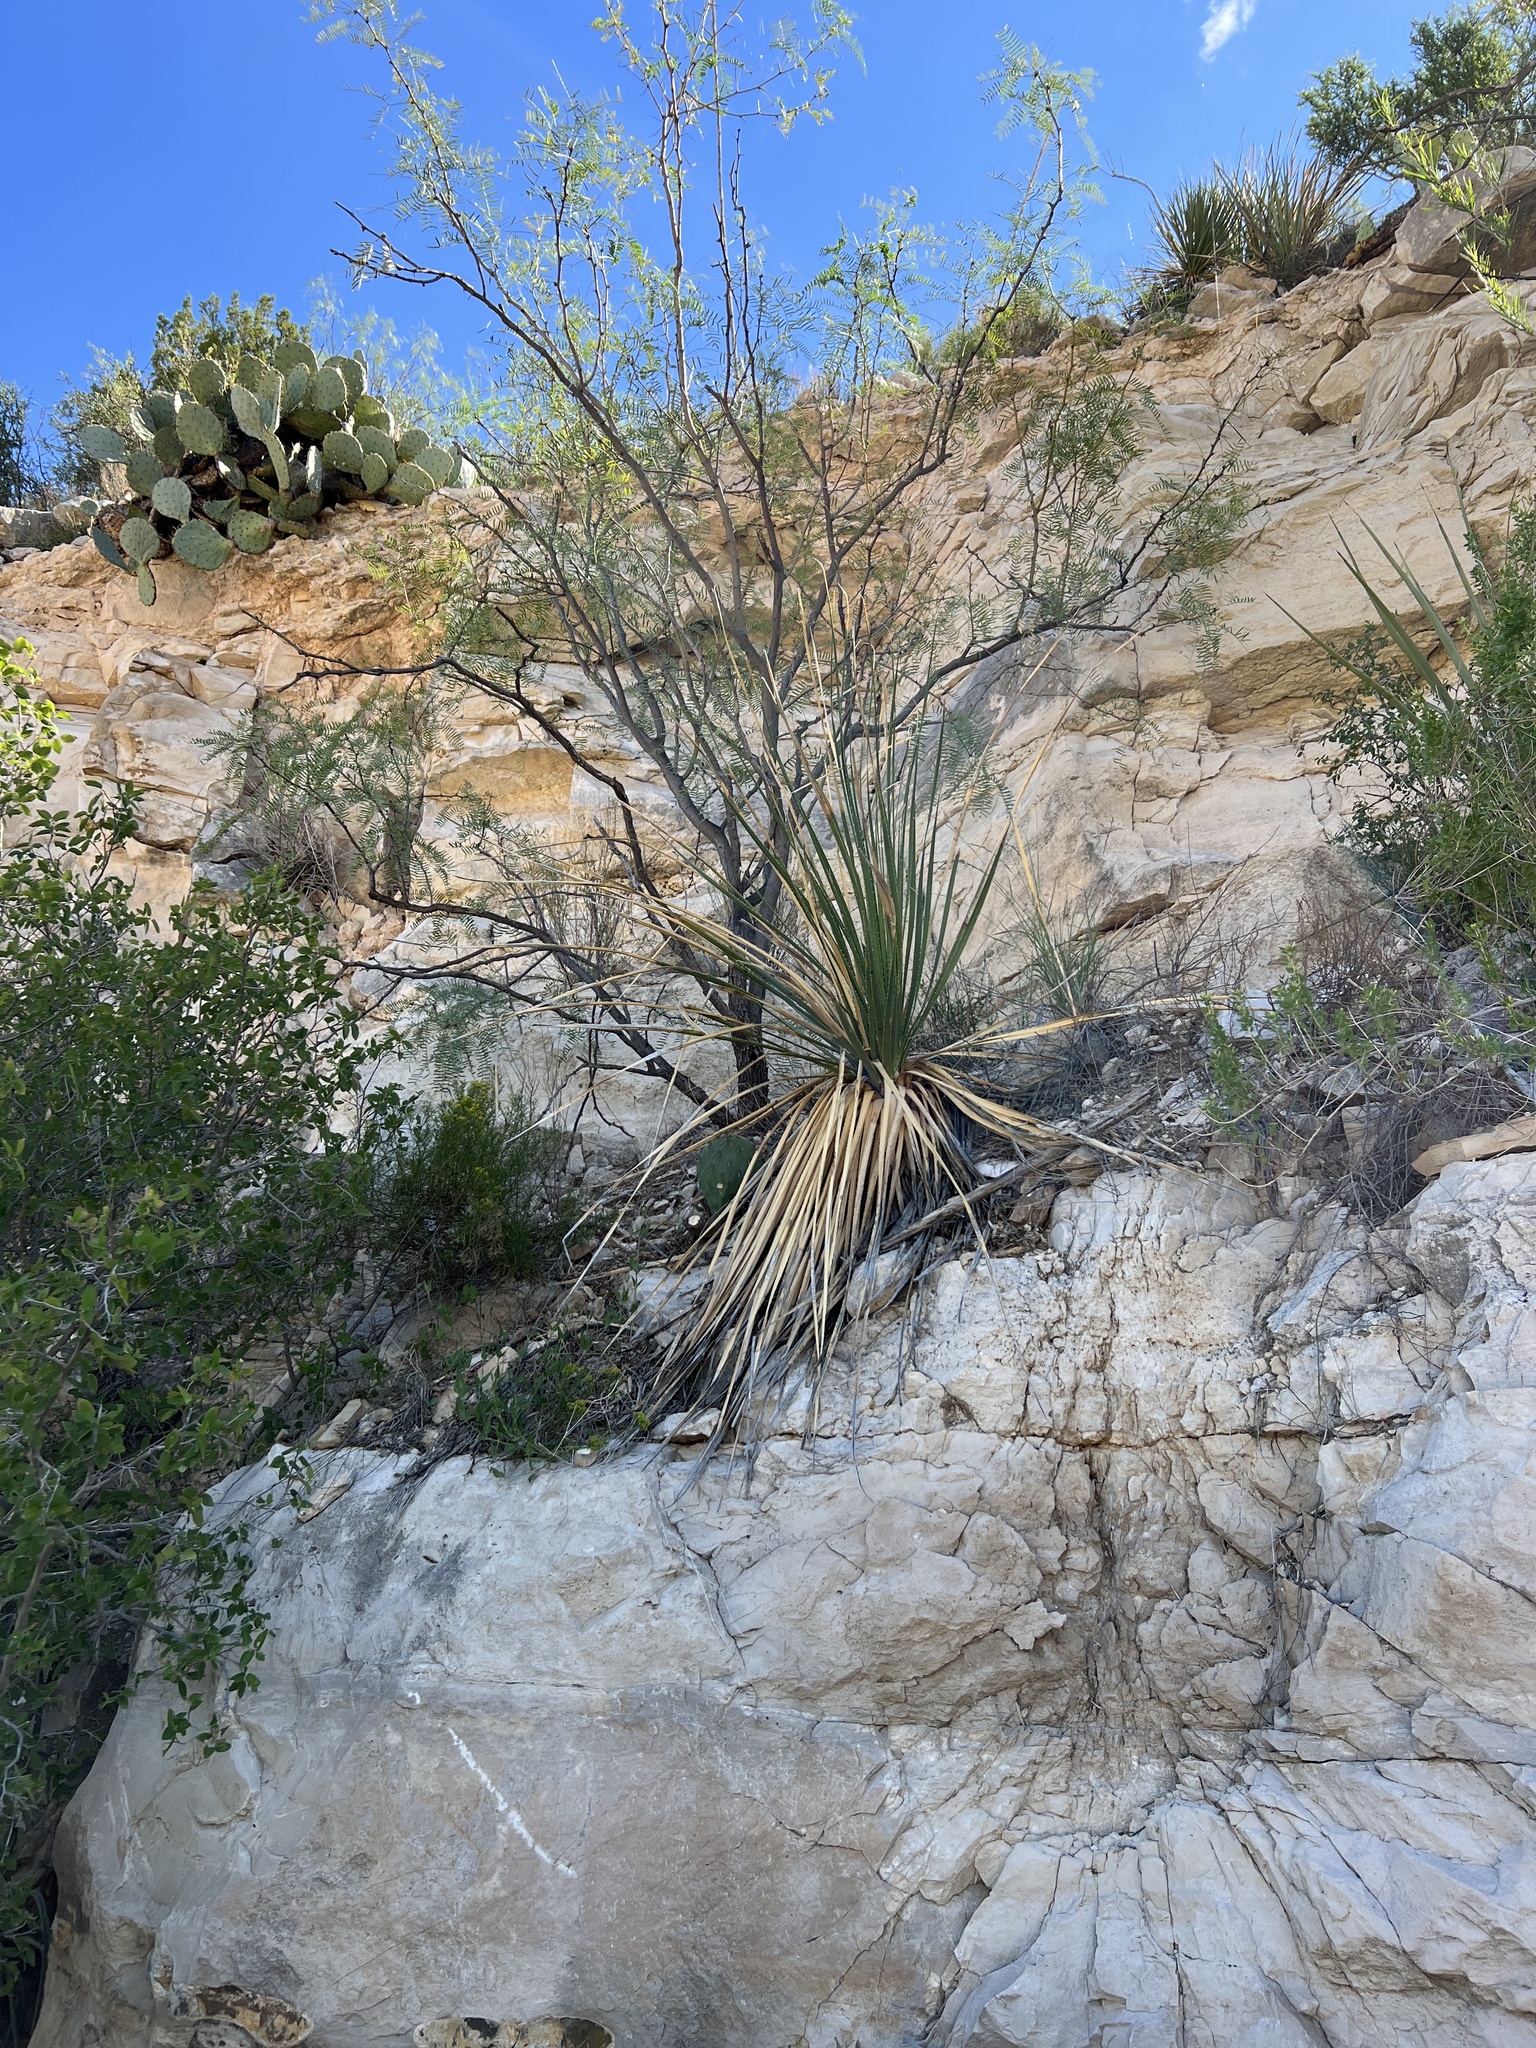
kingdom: Plantae
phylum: Tracheophyta
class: Liliopsida
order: Asparagales
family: Asparagaceae
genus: Dasylirion
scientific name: Dasylirion texanum
